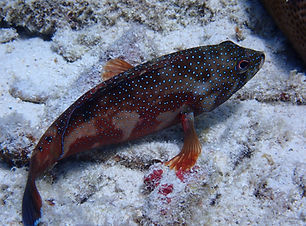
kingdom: Animalia
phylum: Chordata
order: Perciformes
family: Serranidae
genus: Cephalopholis
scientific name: Cephalopholis fulva
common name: Butterfish
